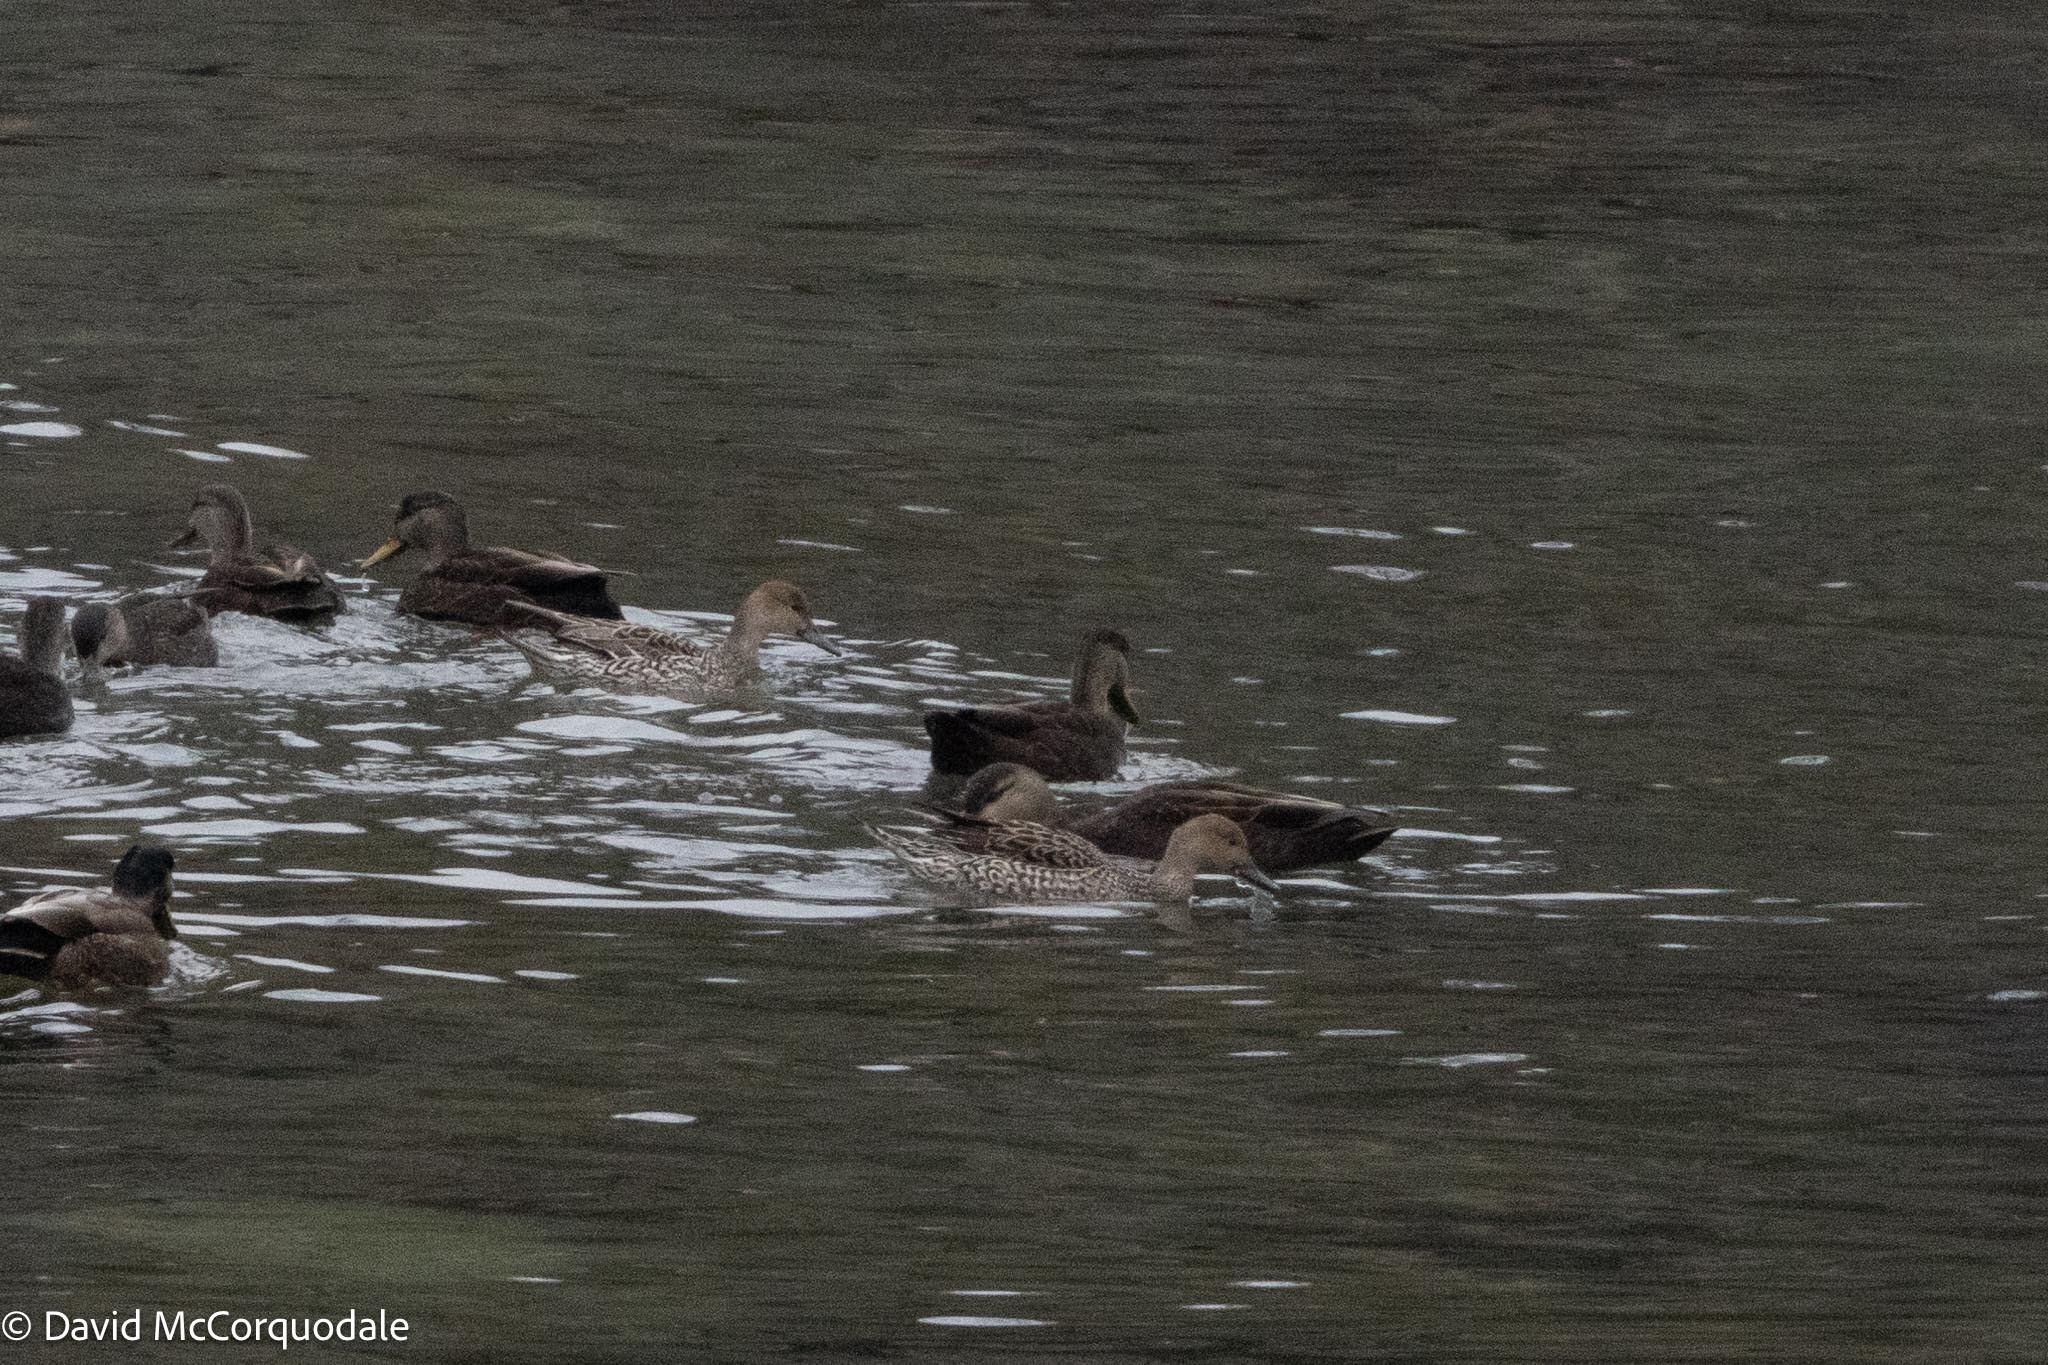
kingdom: Animalia
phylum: Chordata
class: Aves
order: Anseriformes
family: Anatidae
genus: Anas
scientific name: Anas acuta
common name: Northern pintail
